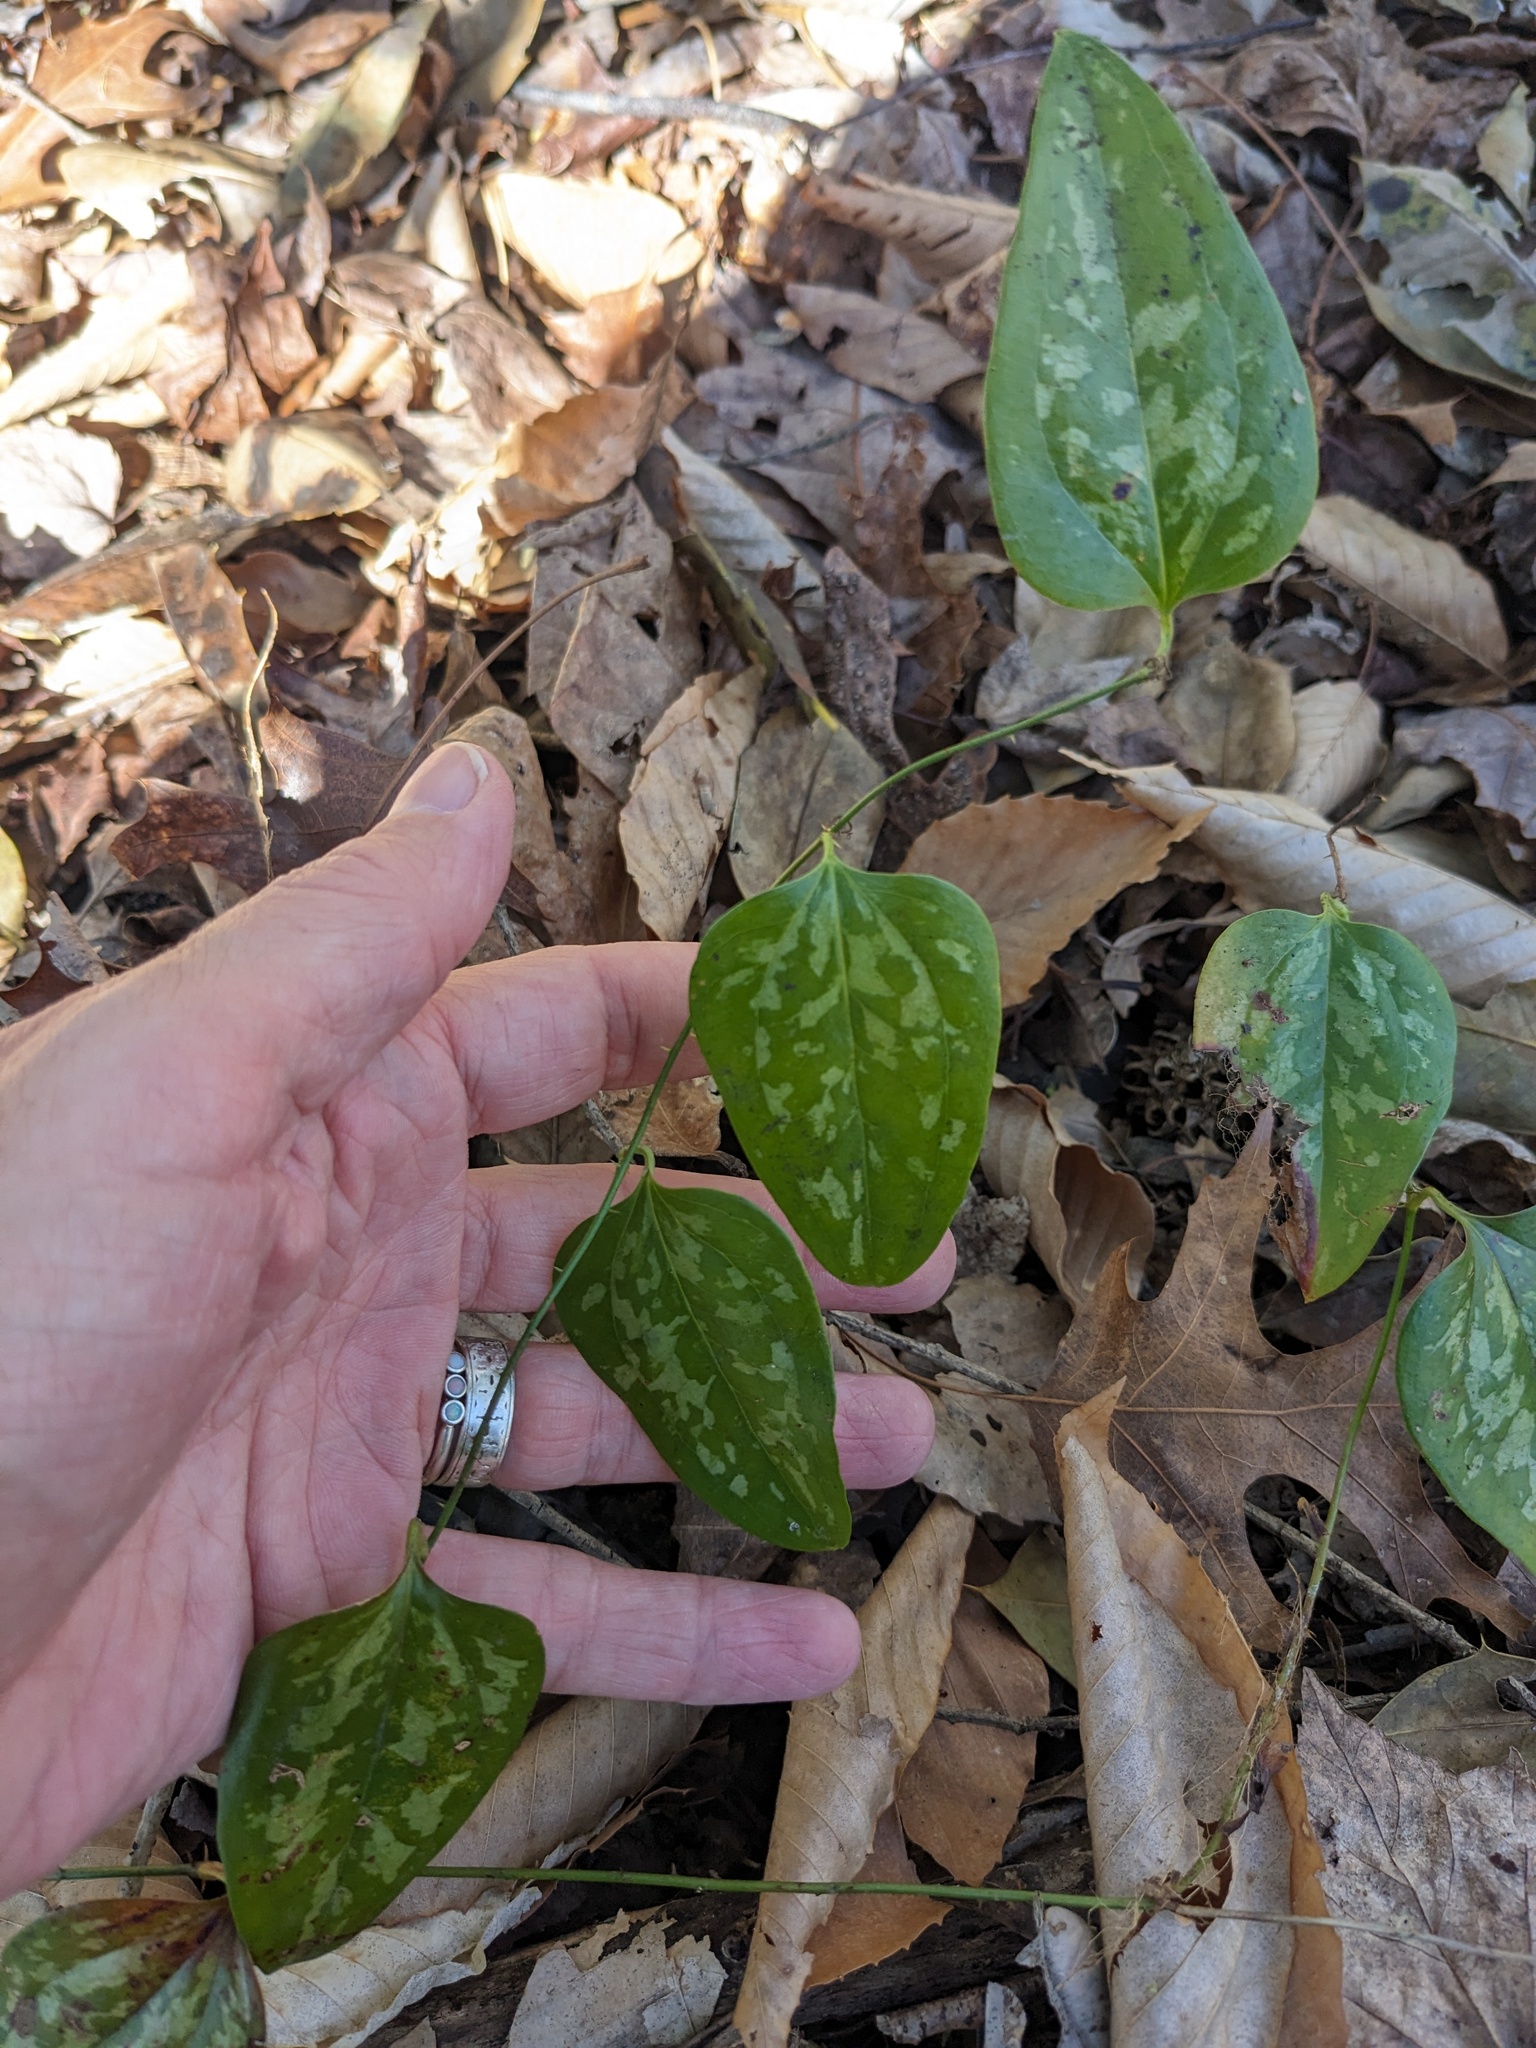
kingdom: Plantae
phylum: Tracheophyta
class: Liliopsida
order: Liliales
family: Smilacaceae
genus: Smilax
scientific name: Smilax glauca
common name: Cat greenbrier
